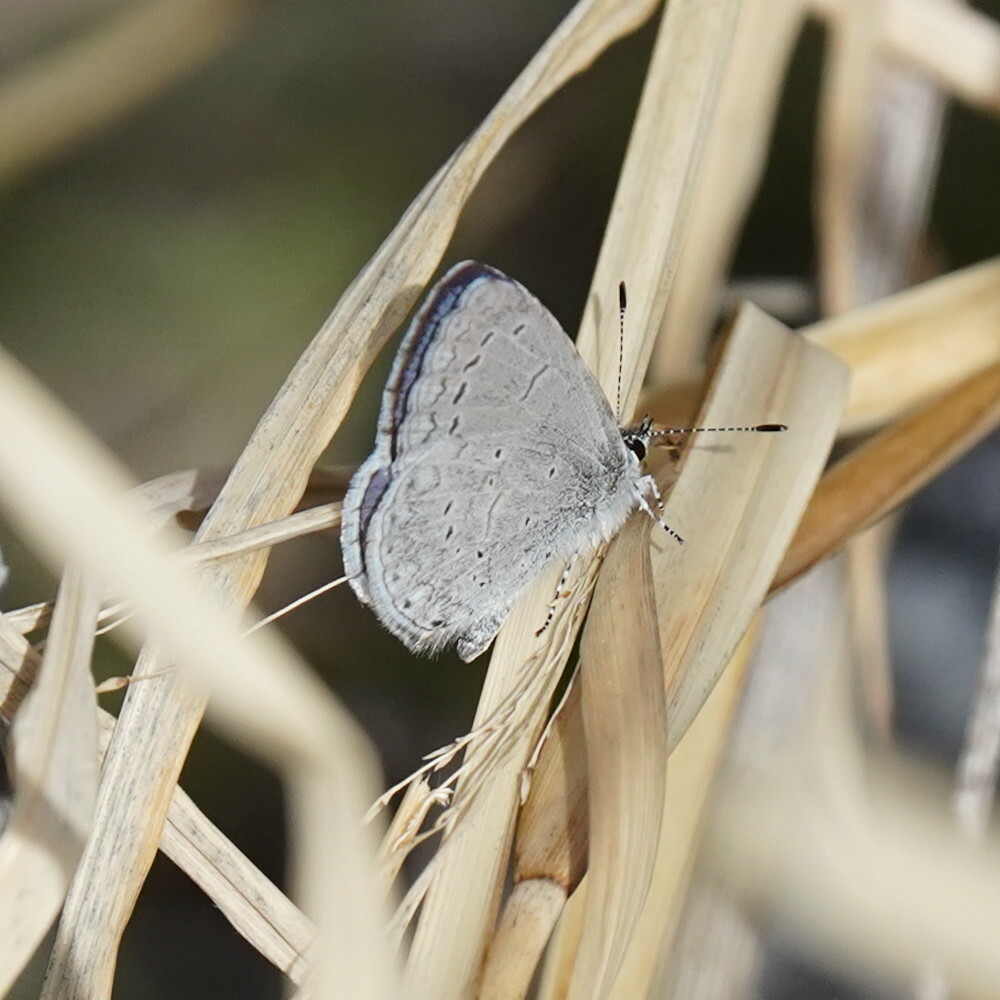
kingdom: Animalia
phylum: Arthropoda
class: Insecta
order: Lepidoptera
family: Lycaenidae
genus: Celastrina
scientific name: Celastrina ladon
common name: Spring azure
